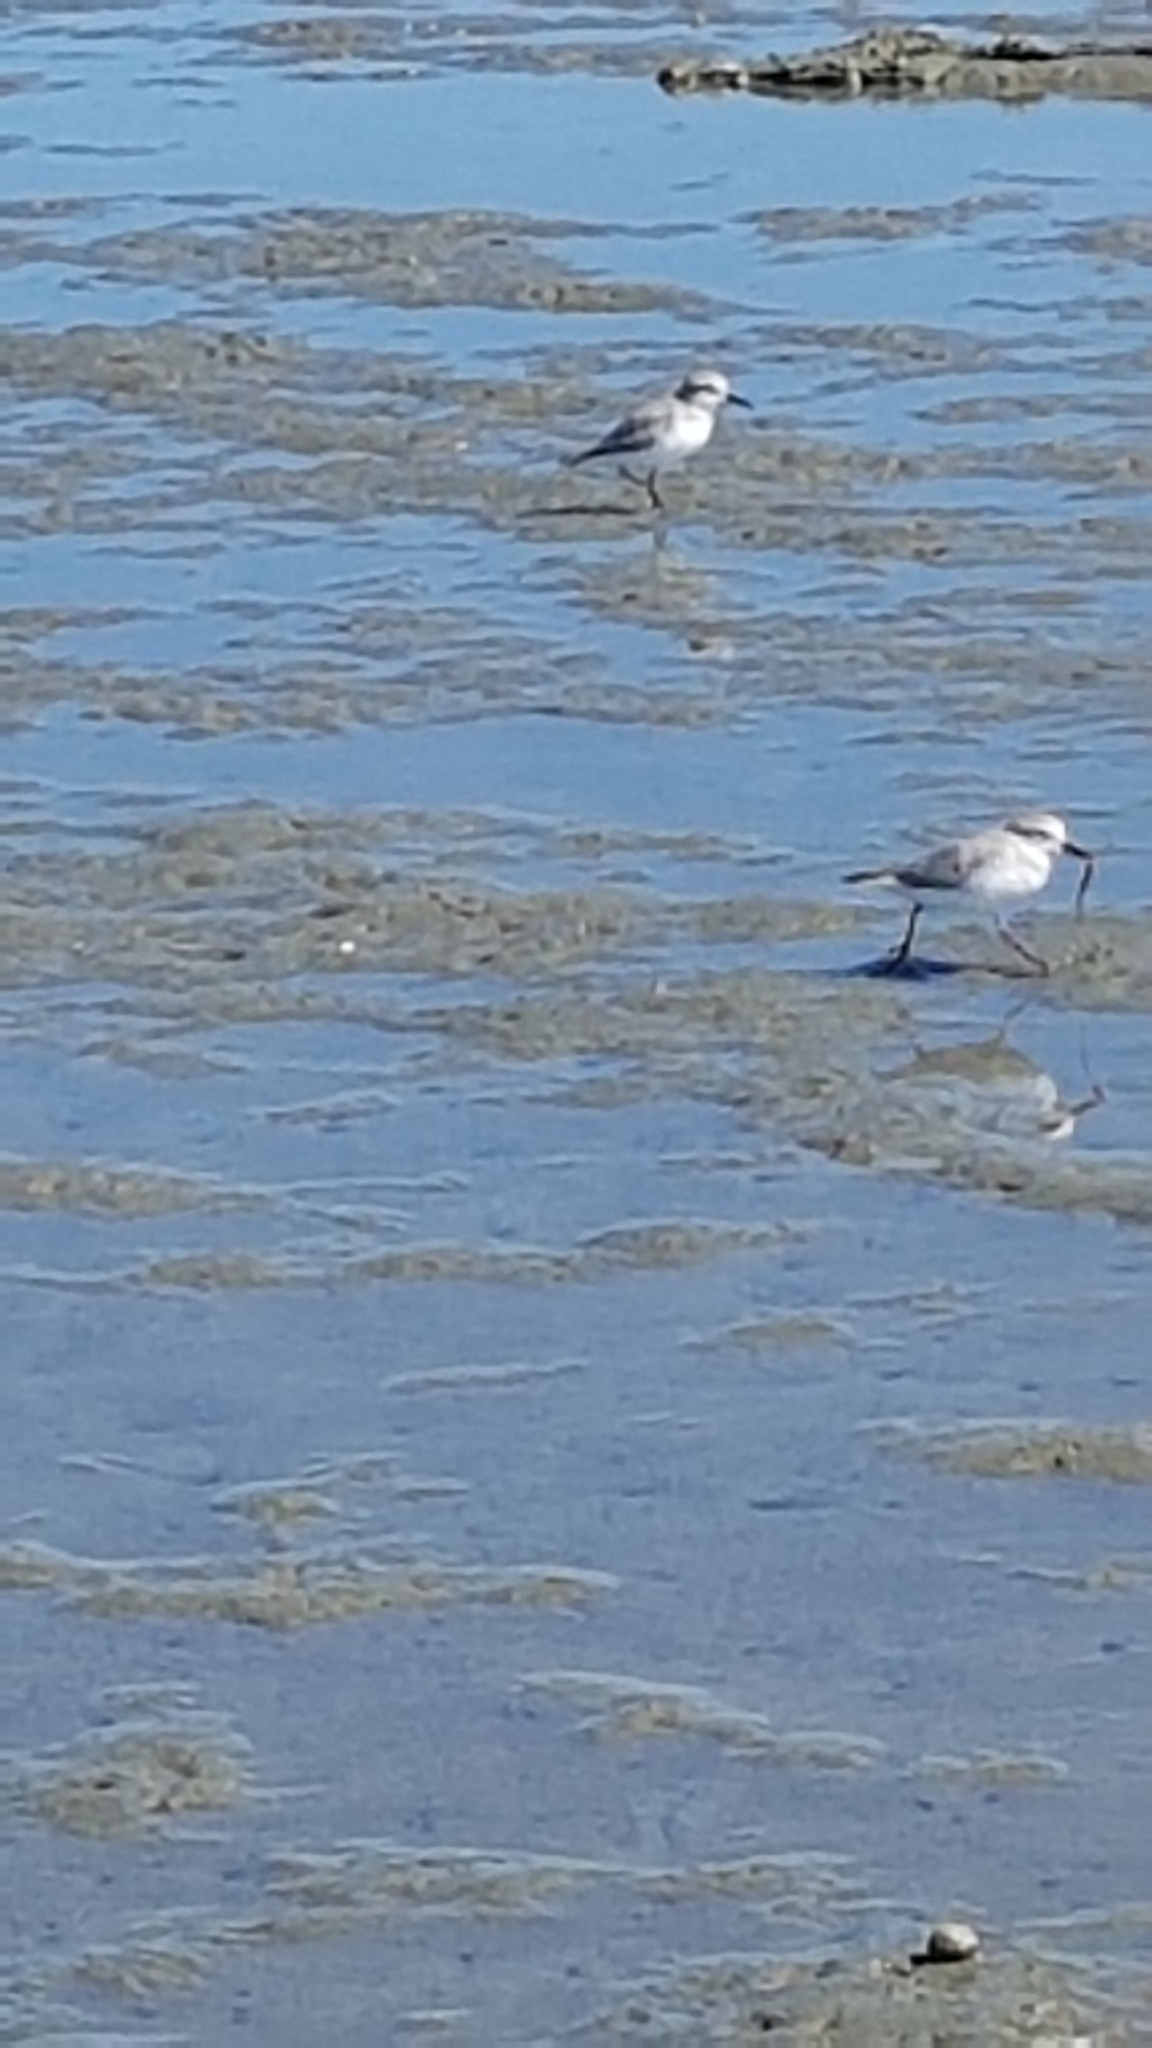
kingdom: Animalia
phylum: Chordata
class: Aves
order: Charadriiformes
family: Charadriidae
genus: Anarhynchus
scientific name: Anarhynchus frontalis
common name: Wrybill
